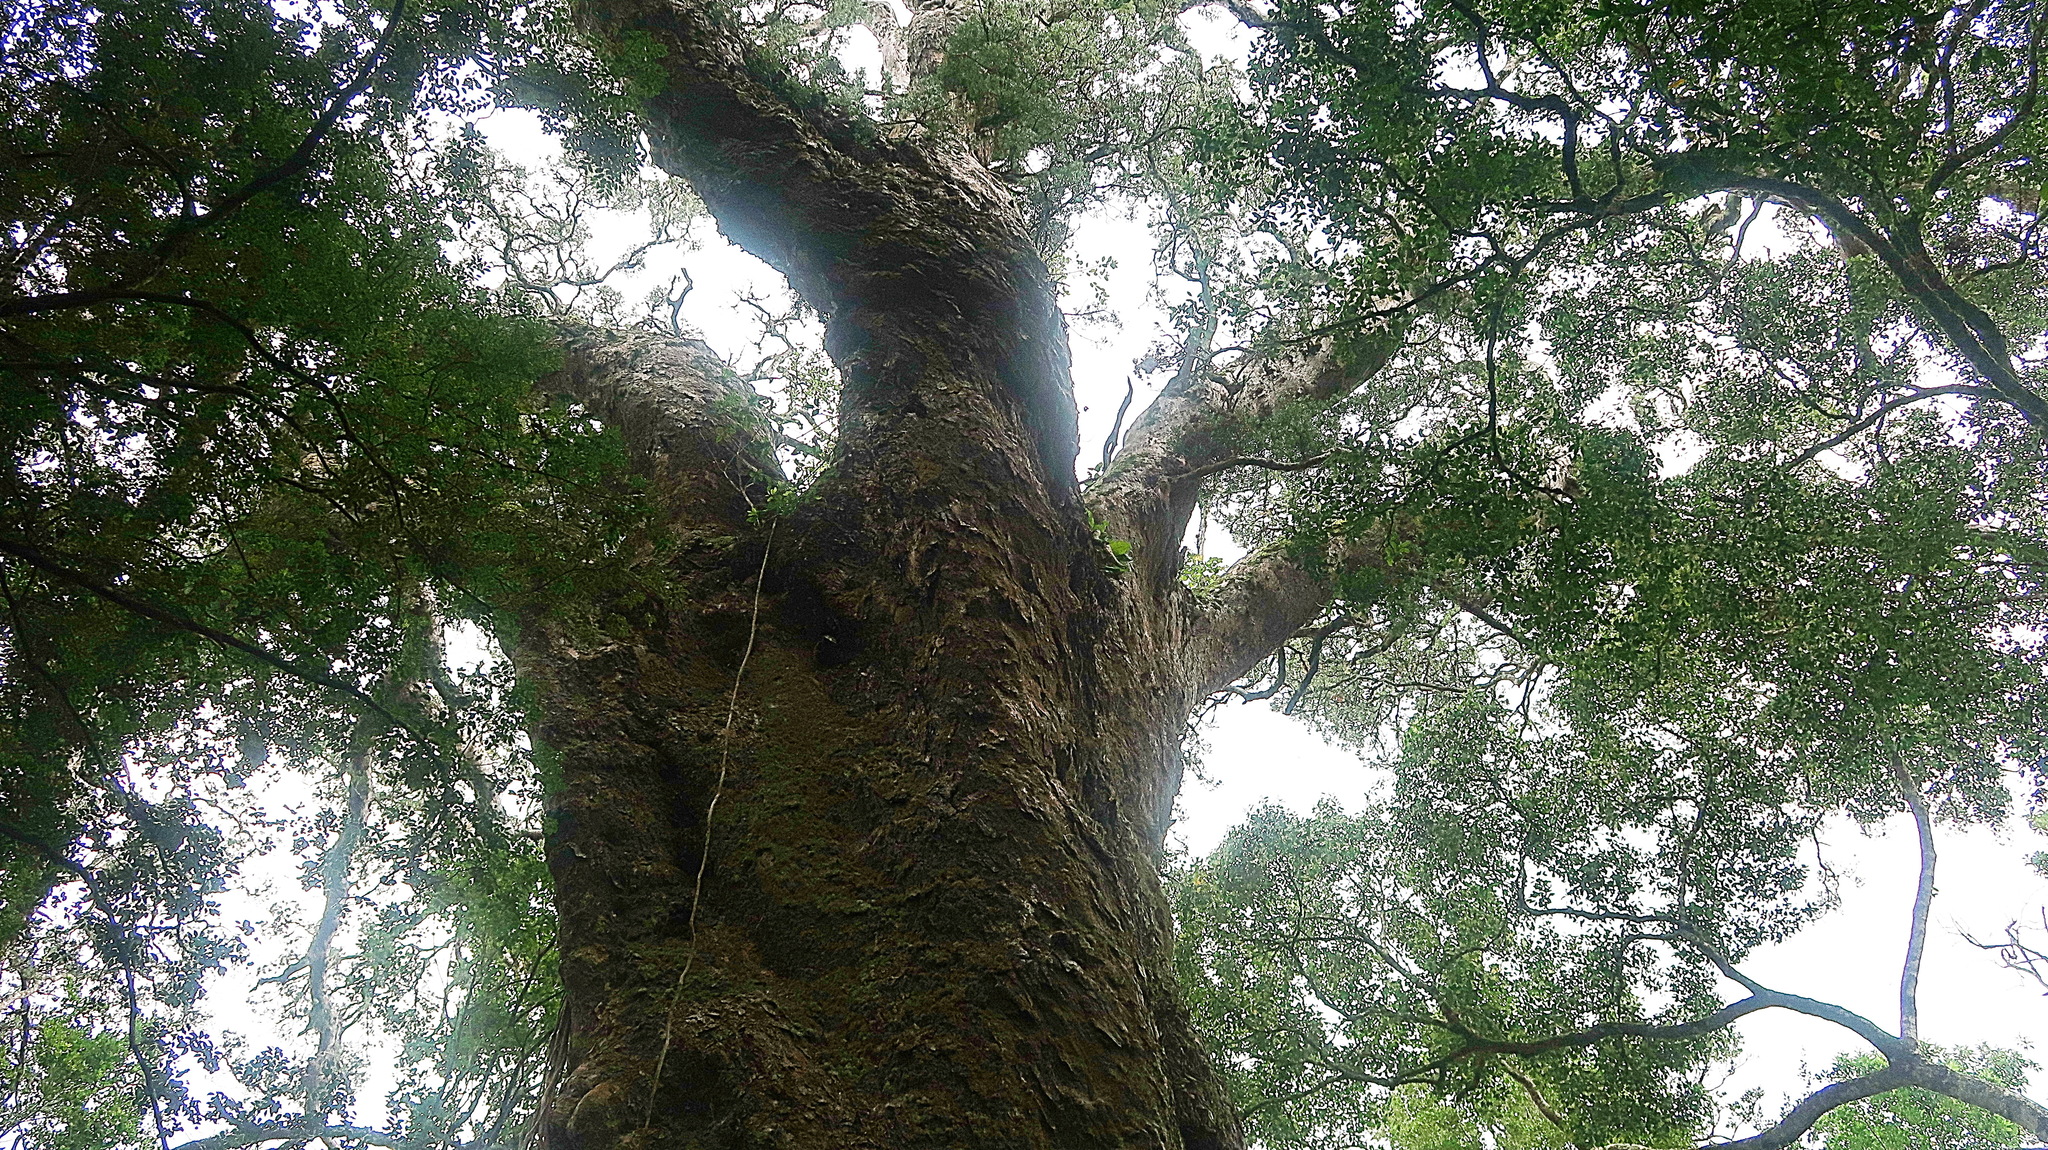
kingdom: Plantae
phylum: Tracheophyta
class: Pinopsida
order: Pinales
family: Podocarpaceae
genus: Afrocarpus
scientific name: Afrocarpus falcatus
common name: Bastard yellowwood
